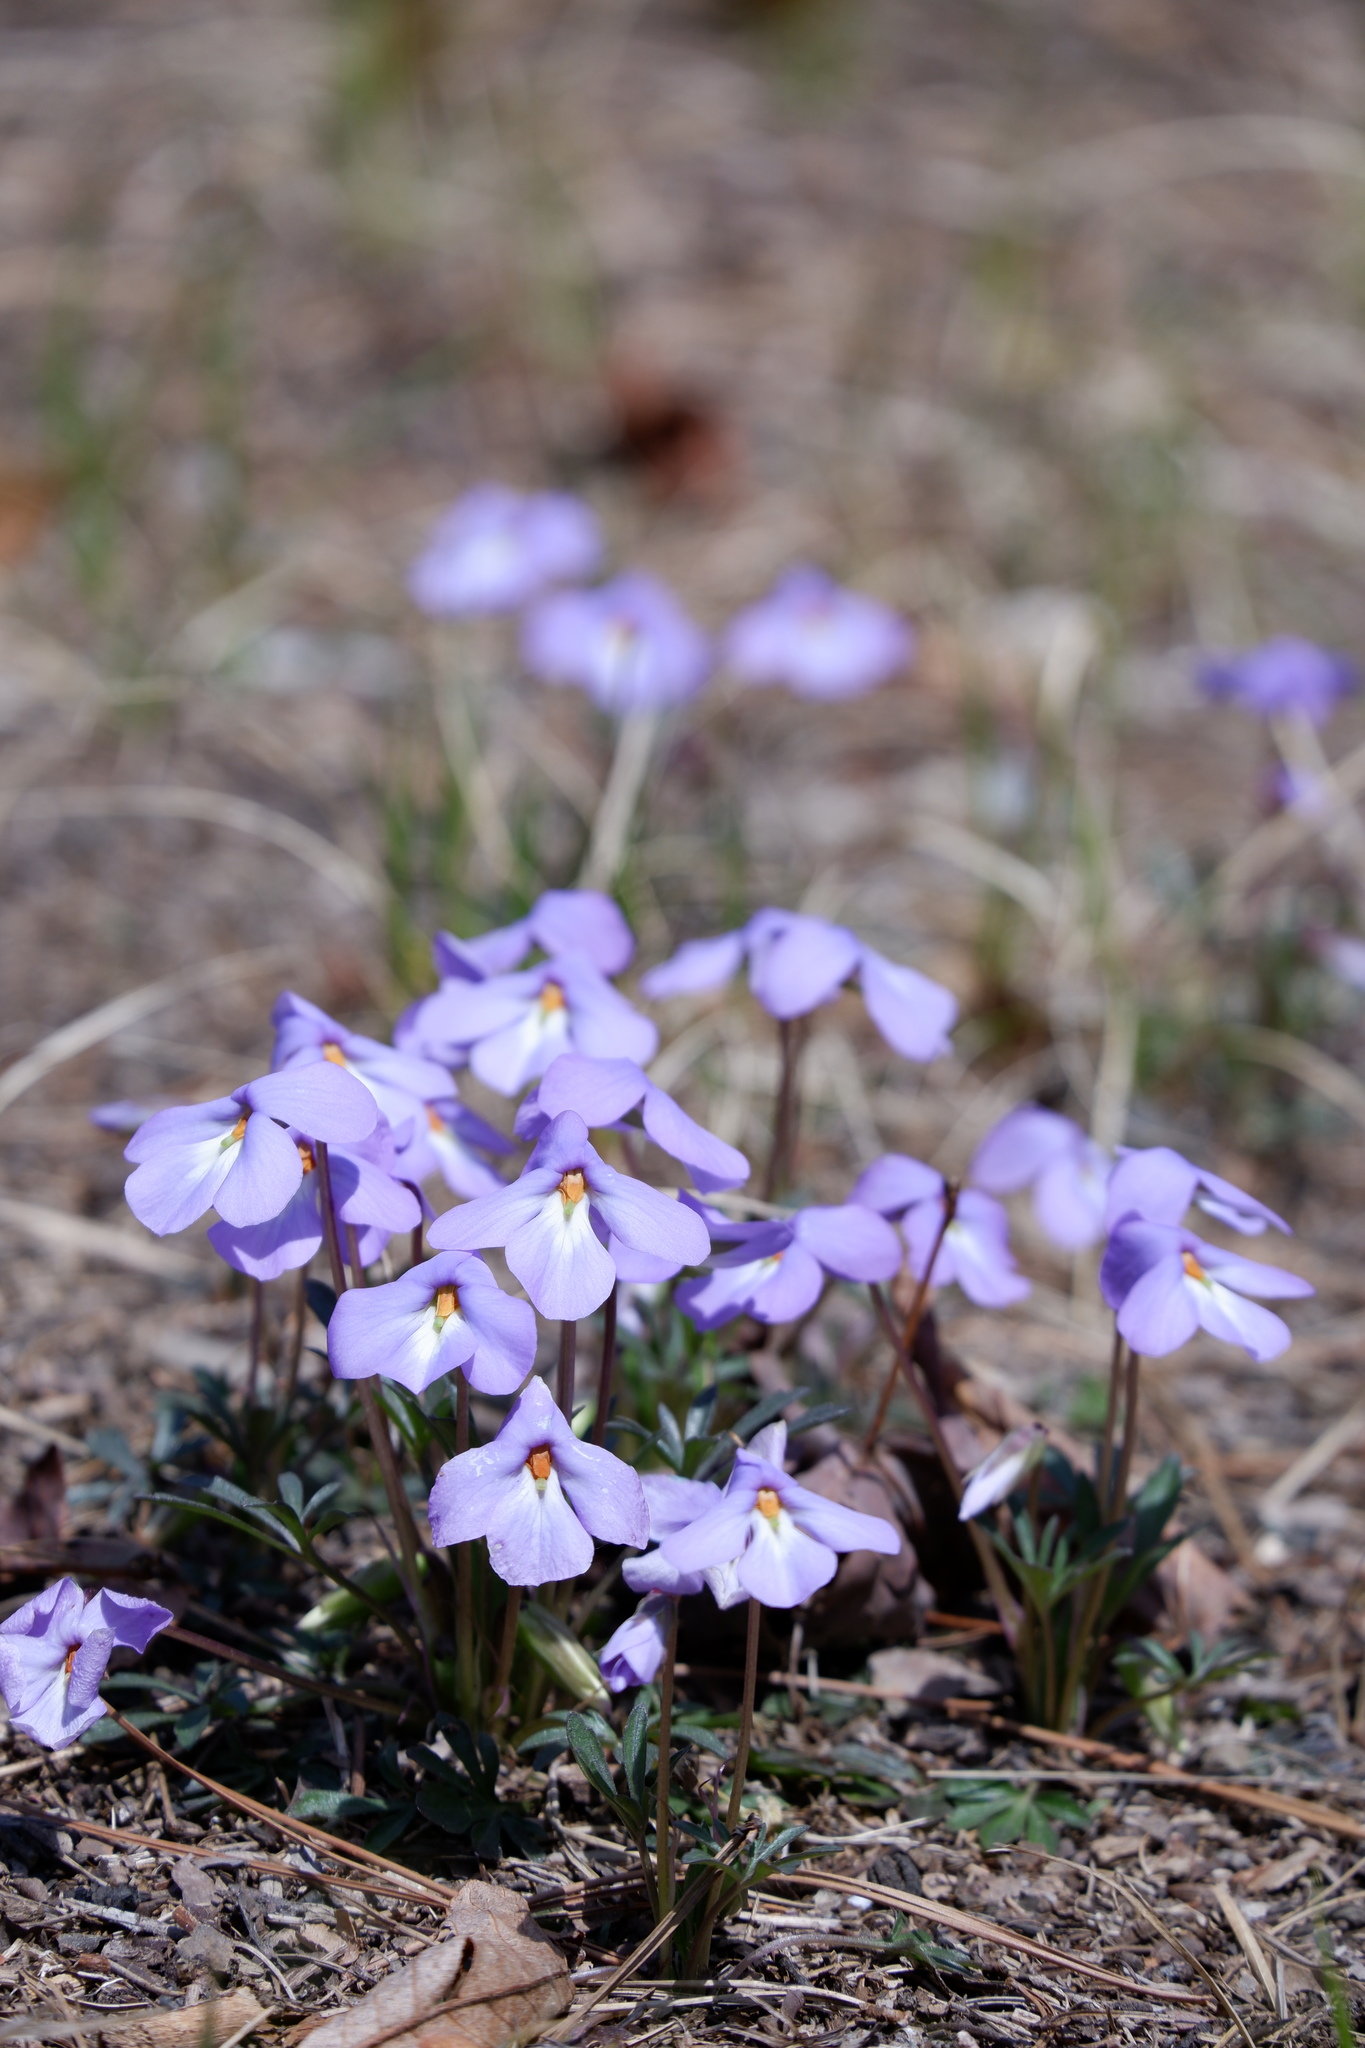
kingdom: Plantae
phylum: Tracheophyta
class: Magnoliopsida
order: Malpighiales
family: Violaceae
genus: Viola
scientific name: Viola pedata
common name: Pansy violet
